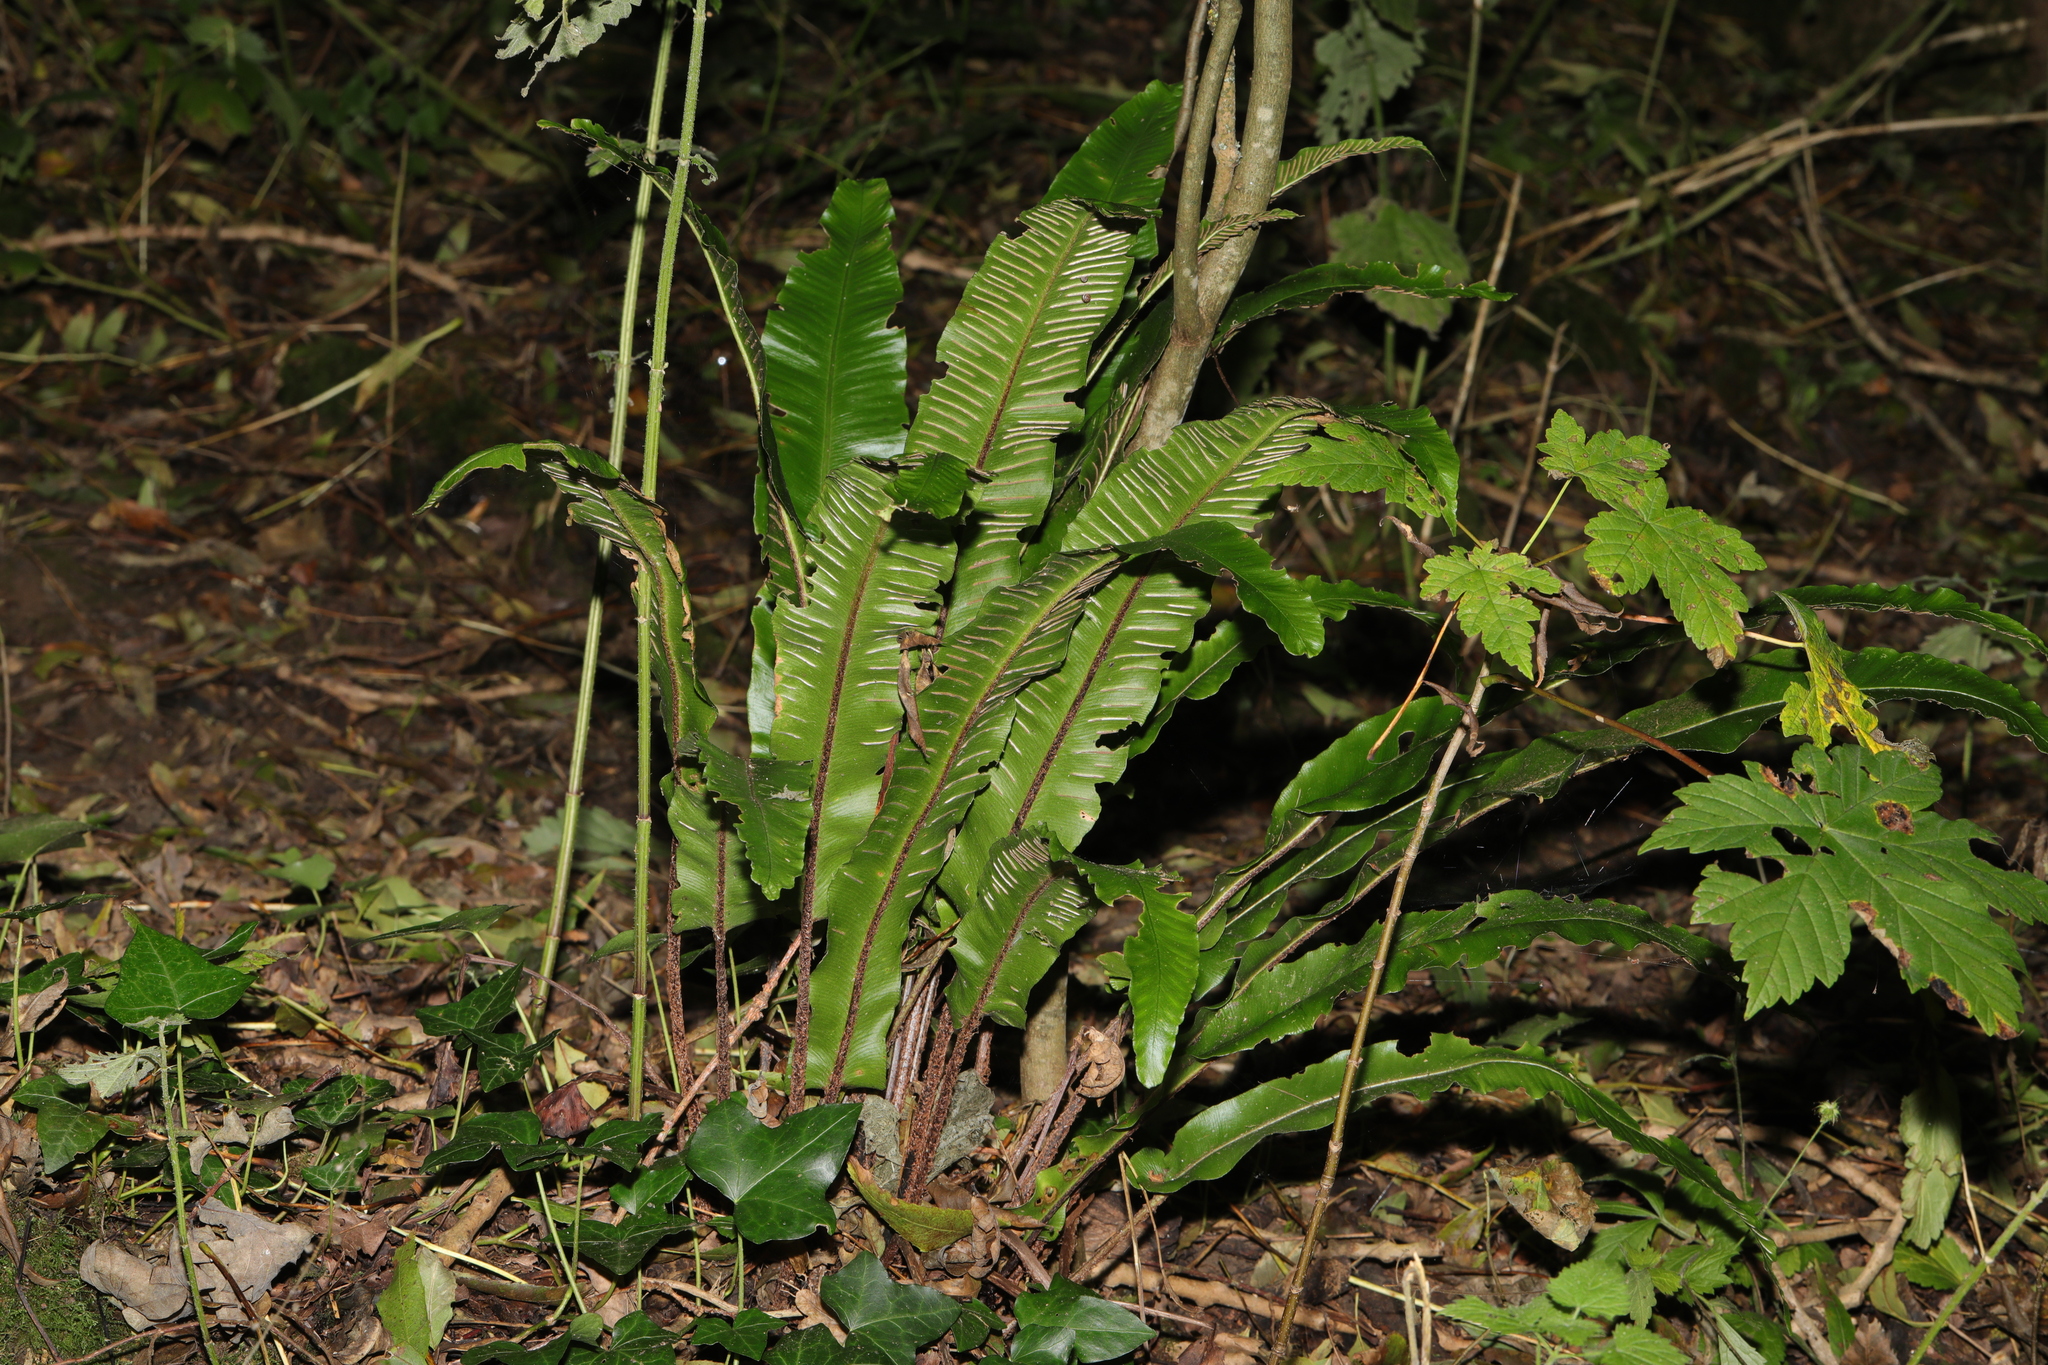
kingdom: Plantae
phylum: Tracheophyta
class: Polypodiopsida
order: Polypodiales
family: Aspleniaceae
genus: Asplenium
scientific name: Asplenium scolopendrium
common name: Hart's-tongue fern
